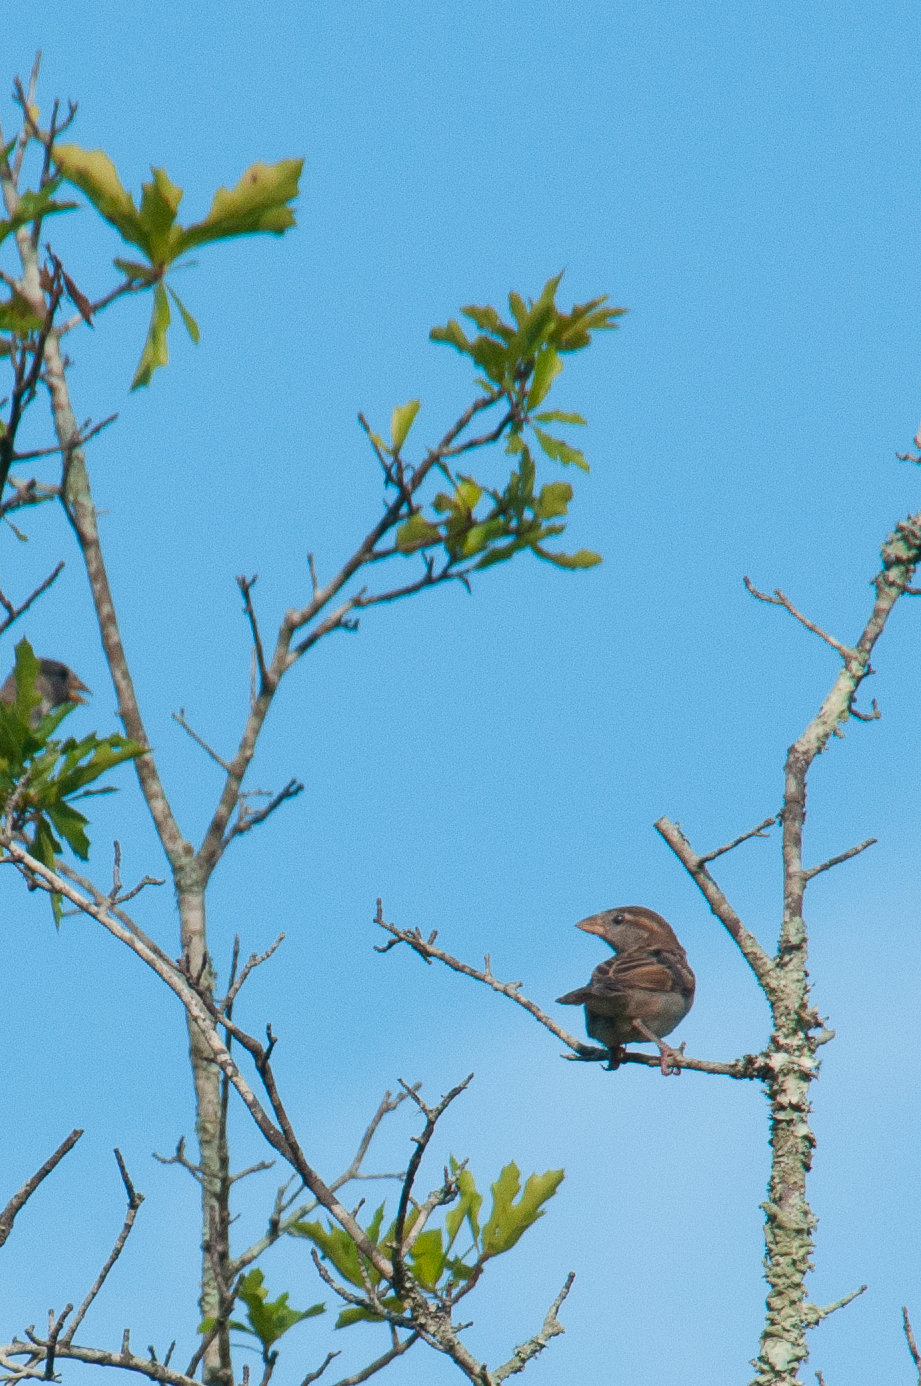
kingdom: Animalia
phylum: Chordata
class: Aves
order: Passeriformes
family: Passeridae
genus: Passer
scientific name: Passer domesticus
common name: House sparrow
